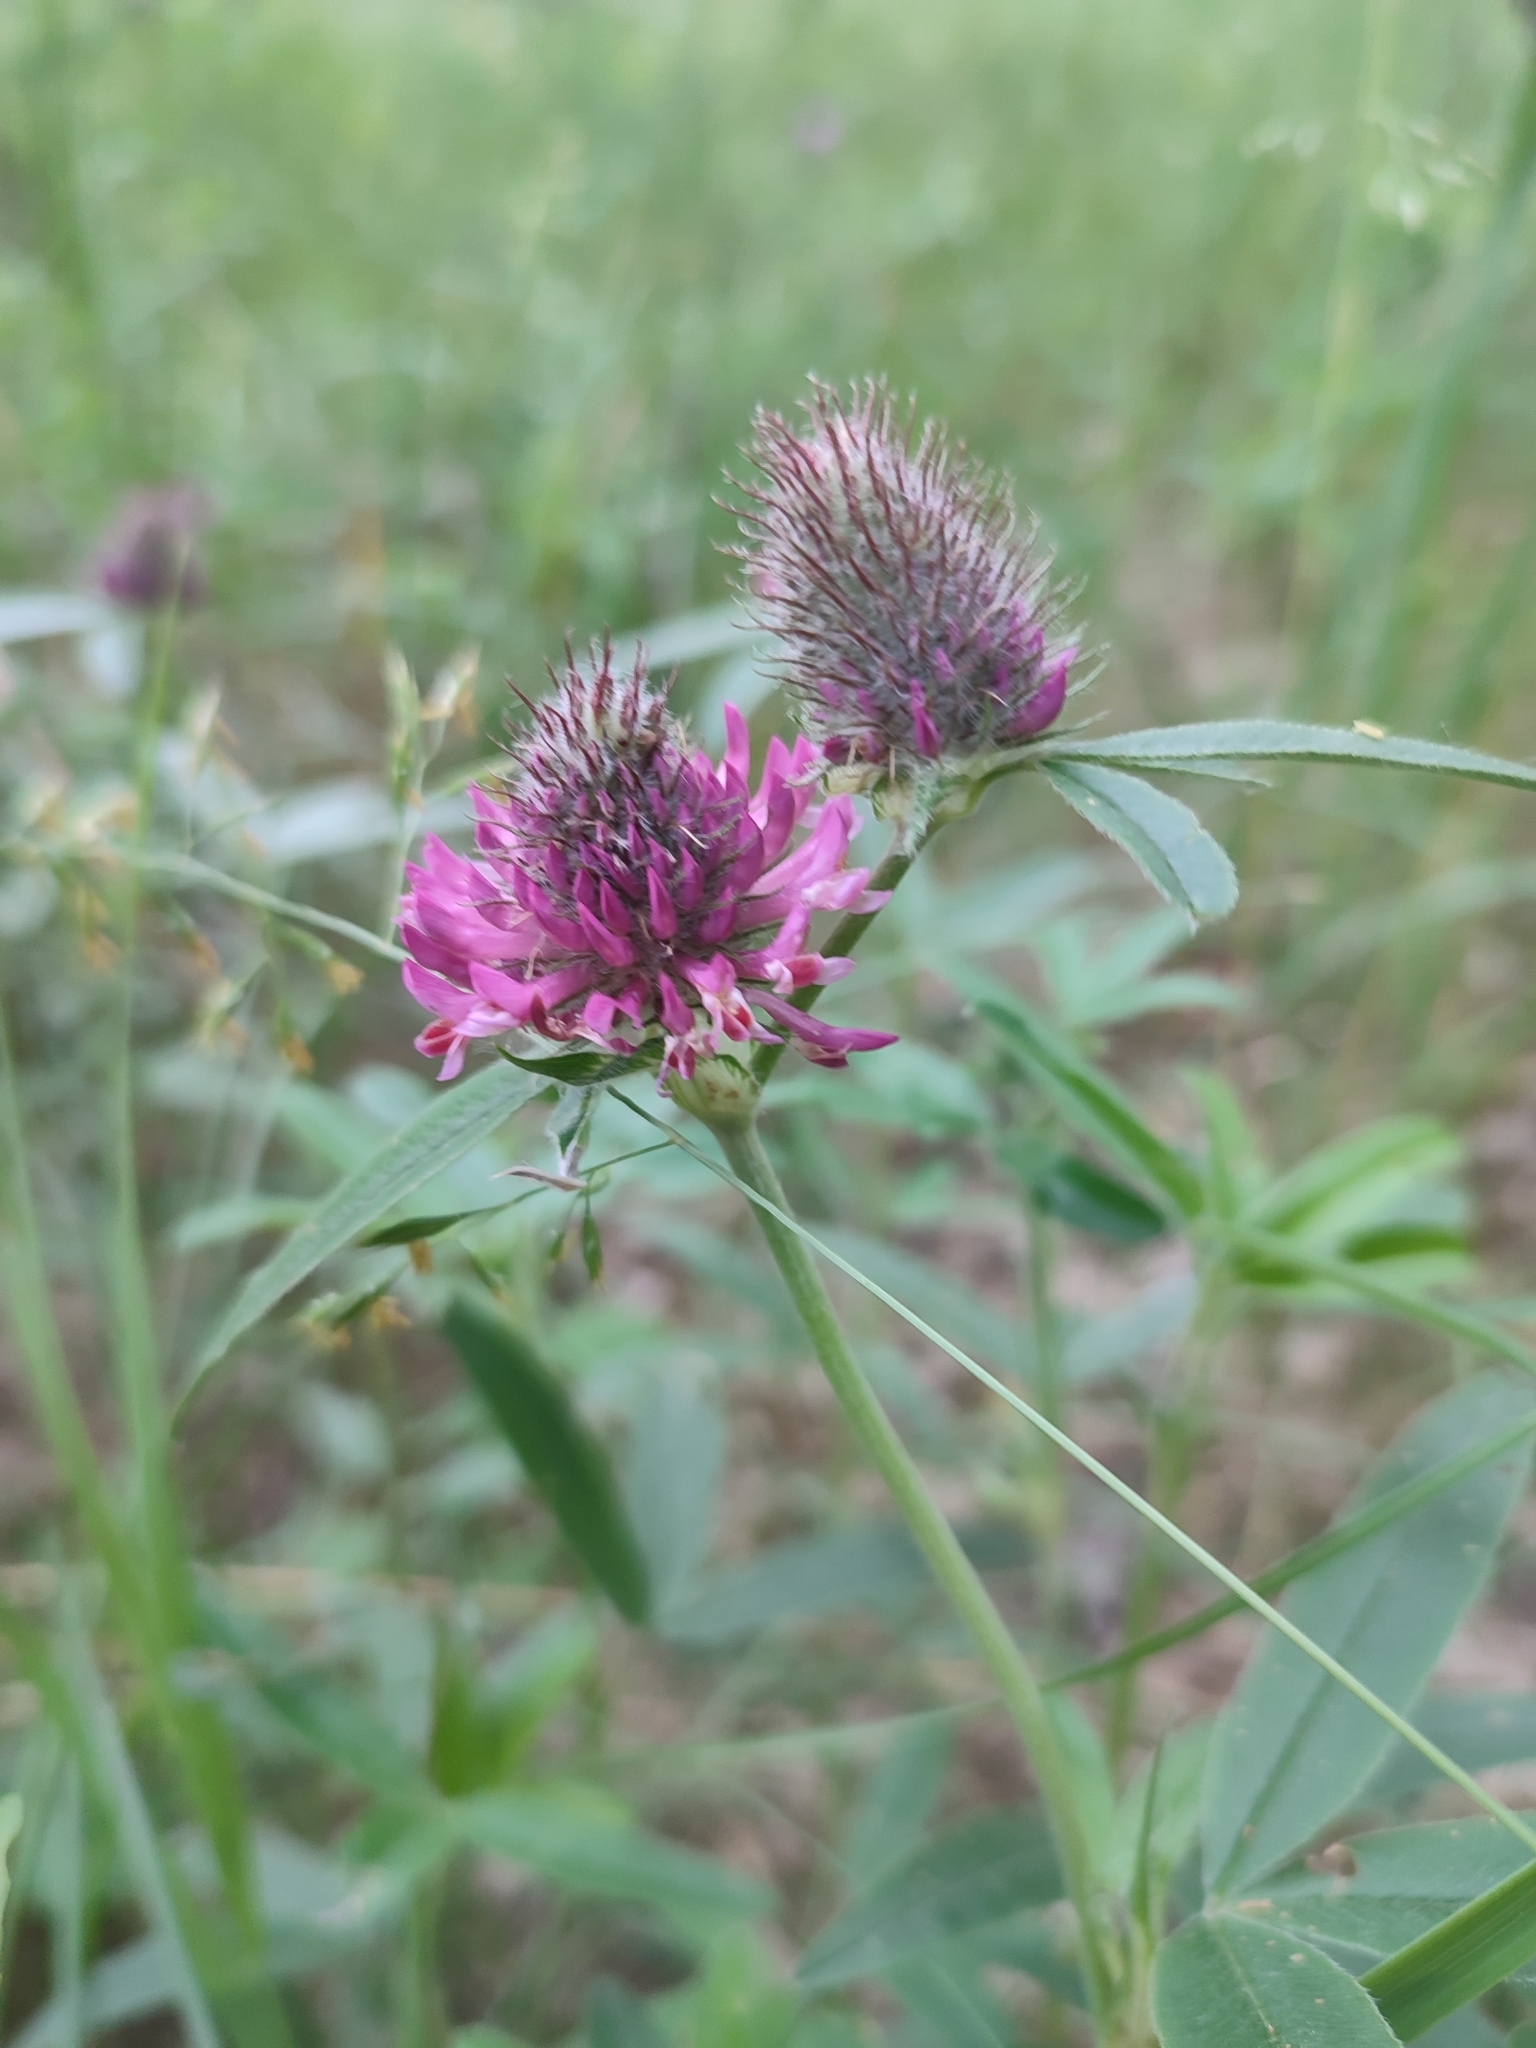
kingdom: Plantae
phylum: Tracheophyta
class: Magnoliopsida
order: Fabales
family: Fabaceae
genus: Trifolium
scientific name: Trifolium alpestre
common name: Owl-head clover
